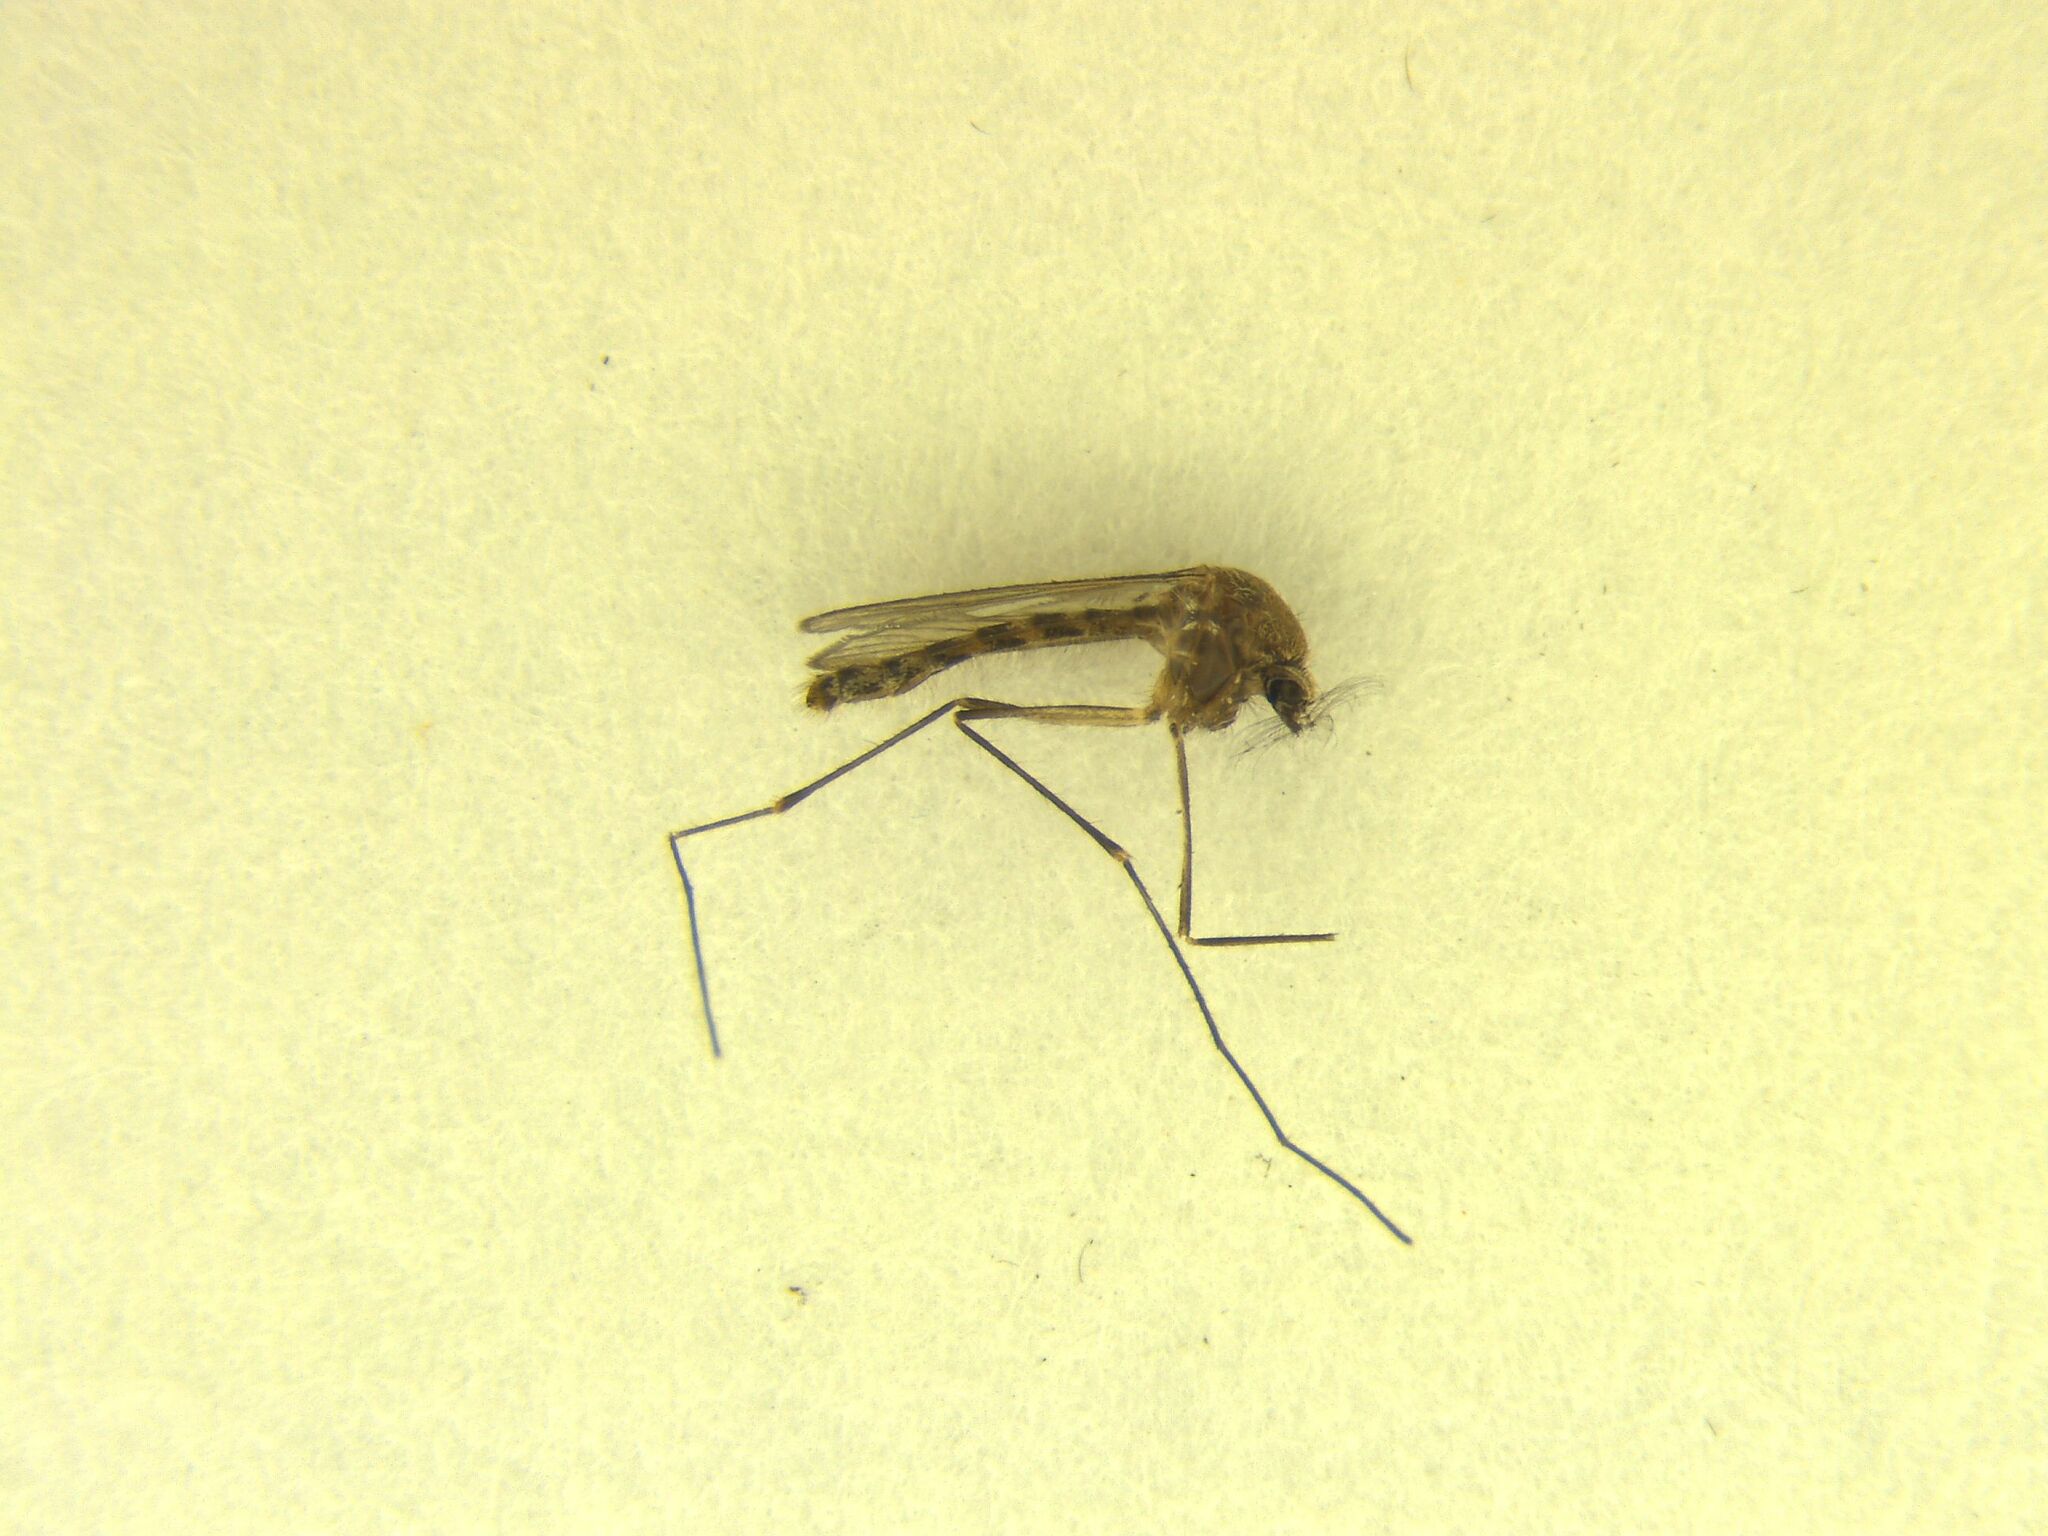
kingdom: Animalia
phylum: Arthropoda
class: Insecta
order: Diptera
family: Culicidae
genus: Coquillettidia
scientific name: Coquillettidia iracunda
